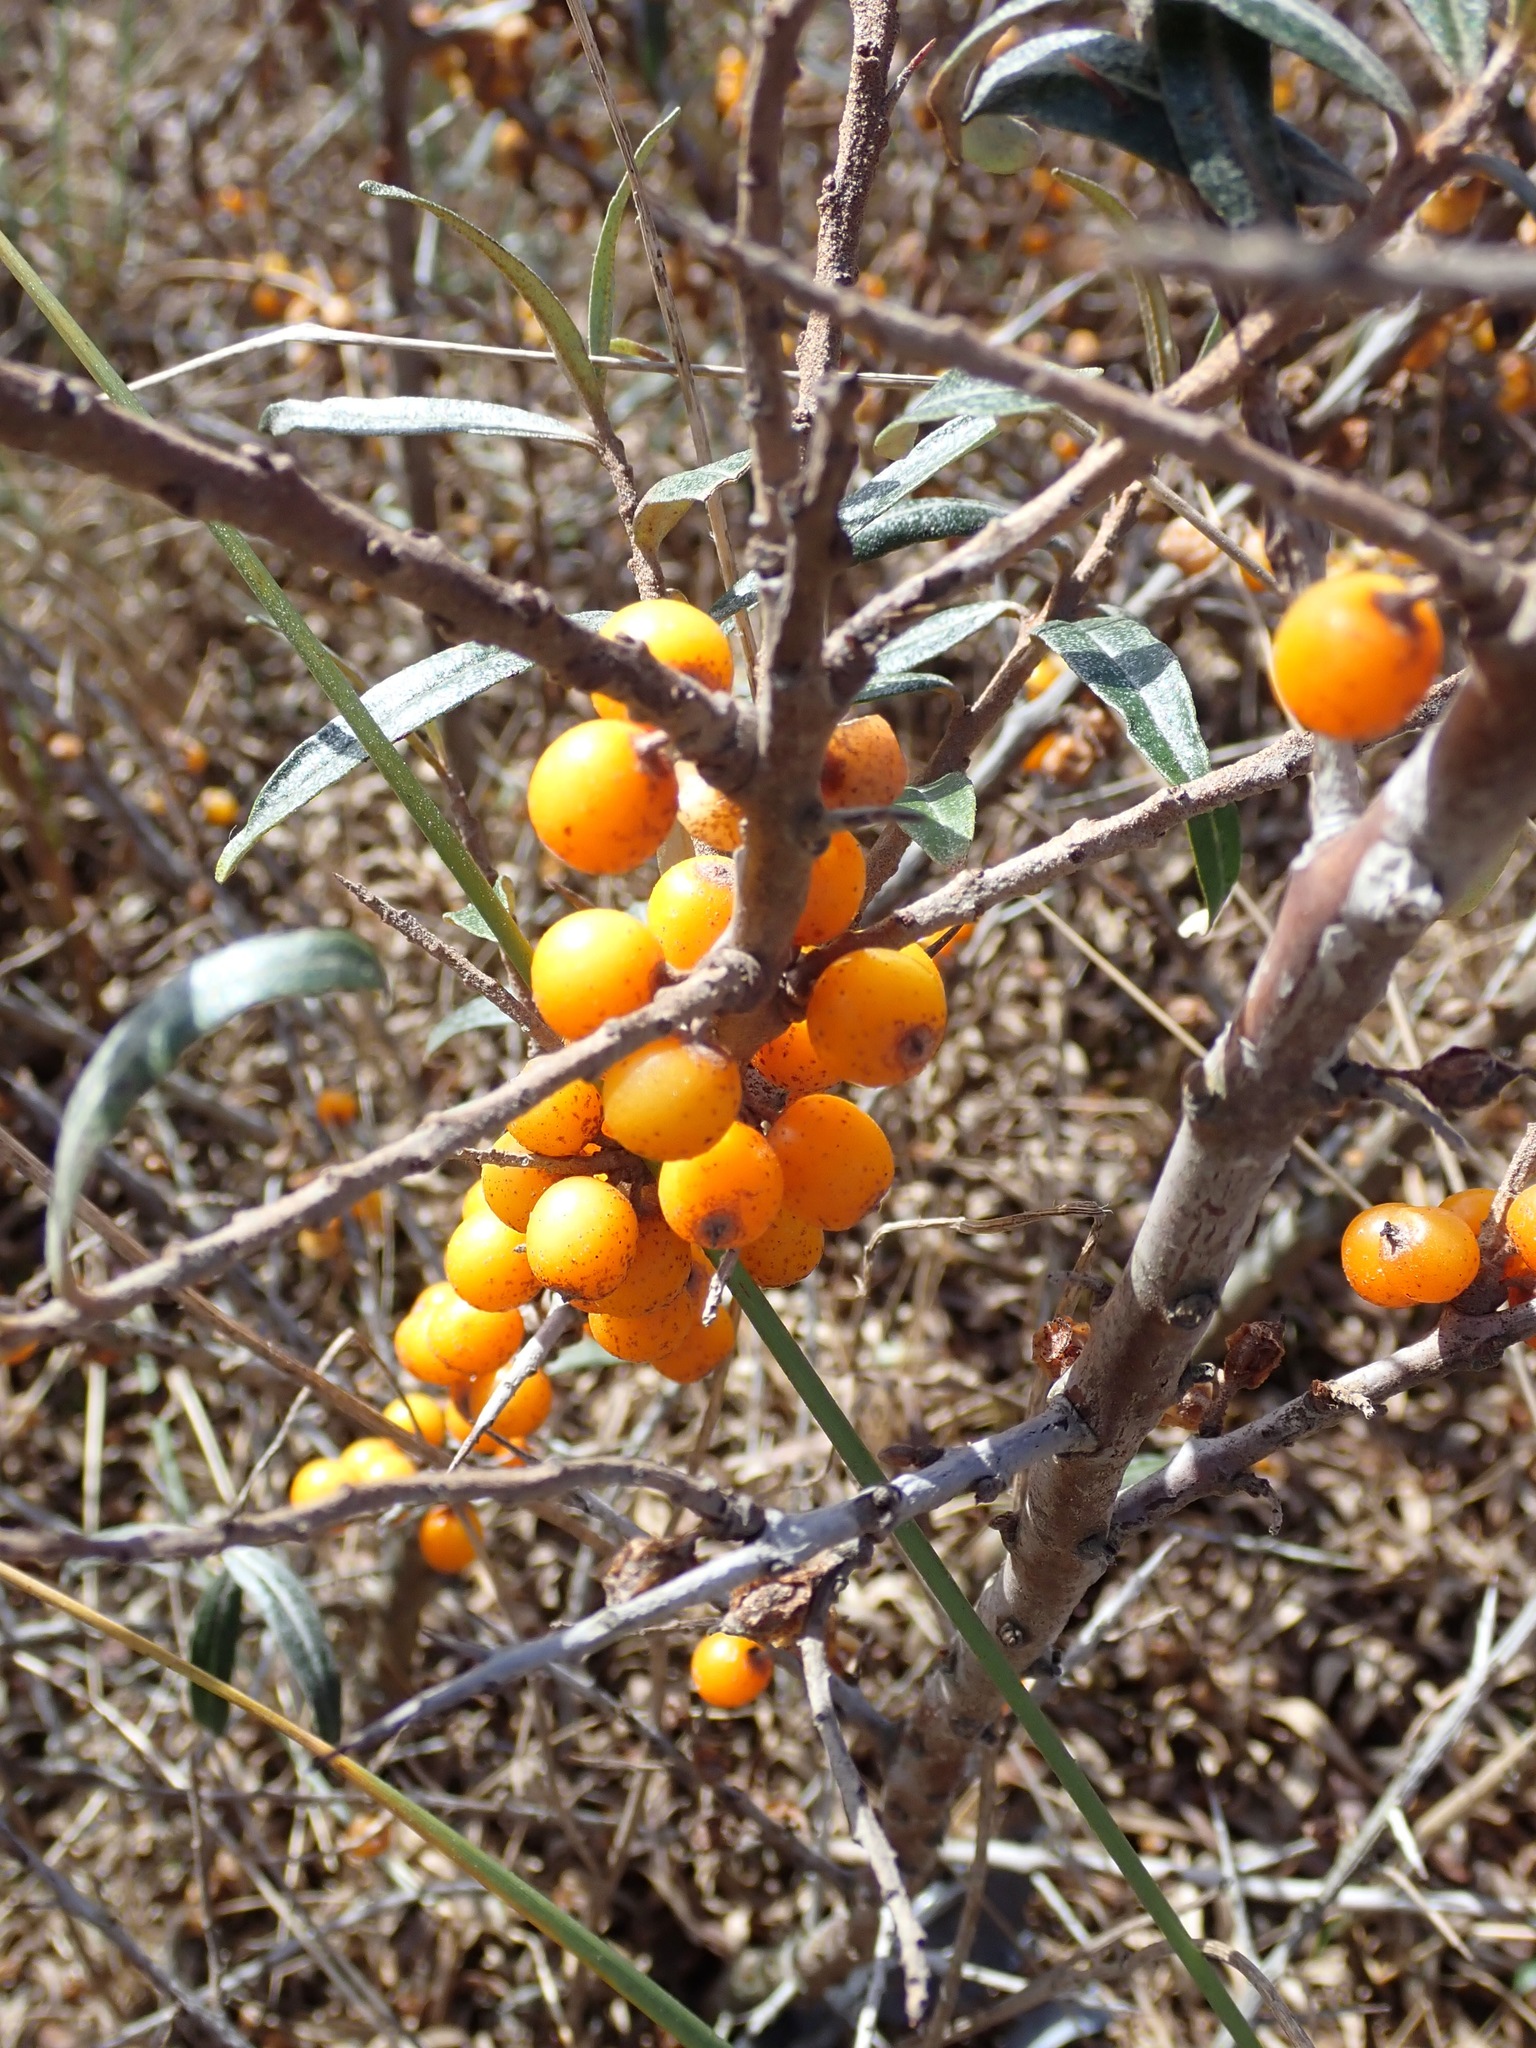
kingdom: Plantae
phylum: Tracheophyta
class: Magnoliopsida
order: Rosales
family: Elaeagnaceae
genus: Hippophae
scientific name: Hippophae rhamnoides
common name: Sea-buckthorn
